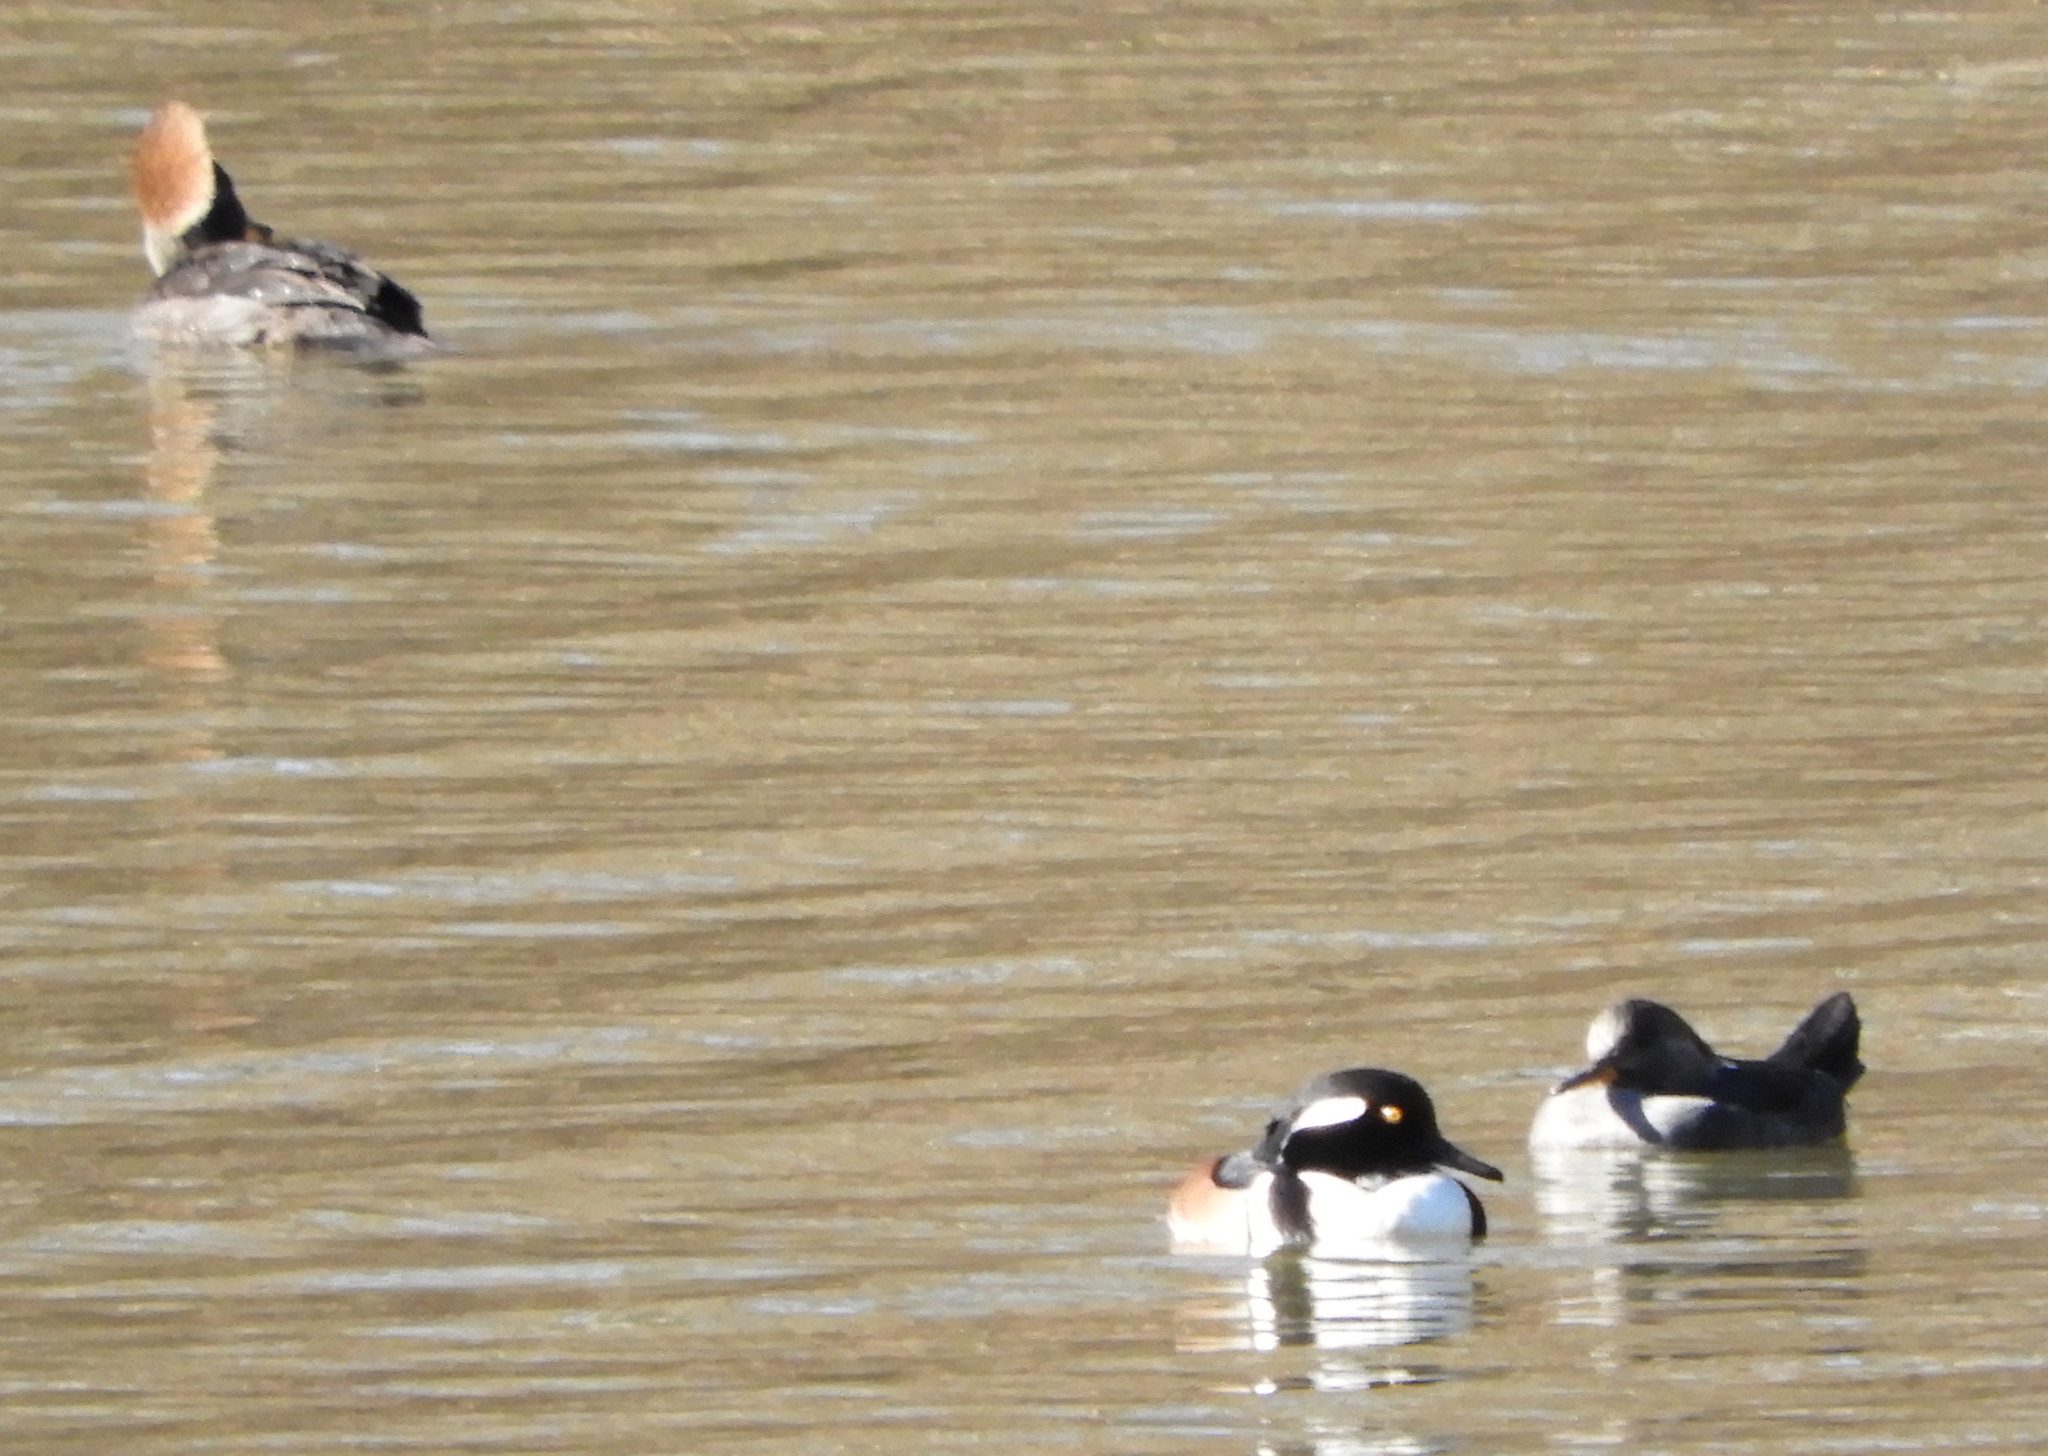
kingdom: Animalia
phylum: Chordata
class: Aves
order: Anseriformes
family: Anatidae
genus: Lophodytes
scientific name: Lophodytes cucullatus
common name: Hooded merganser
